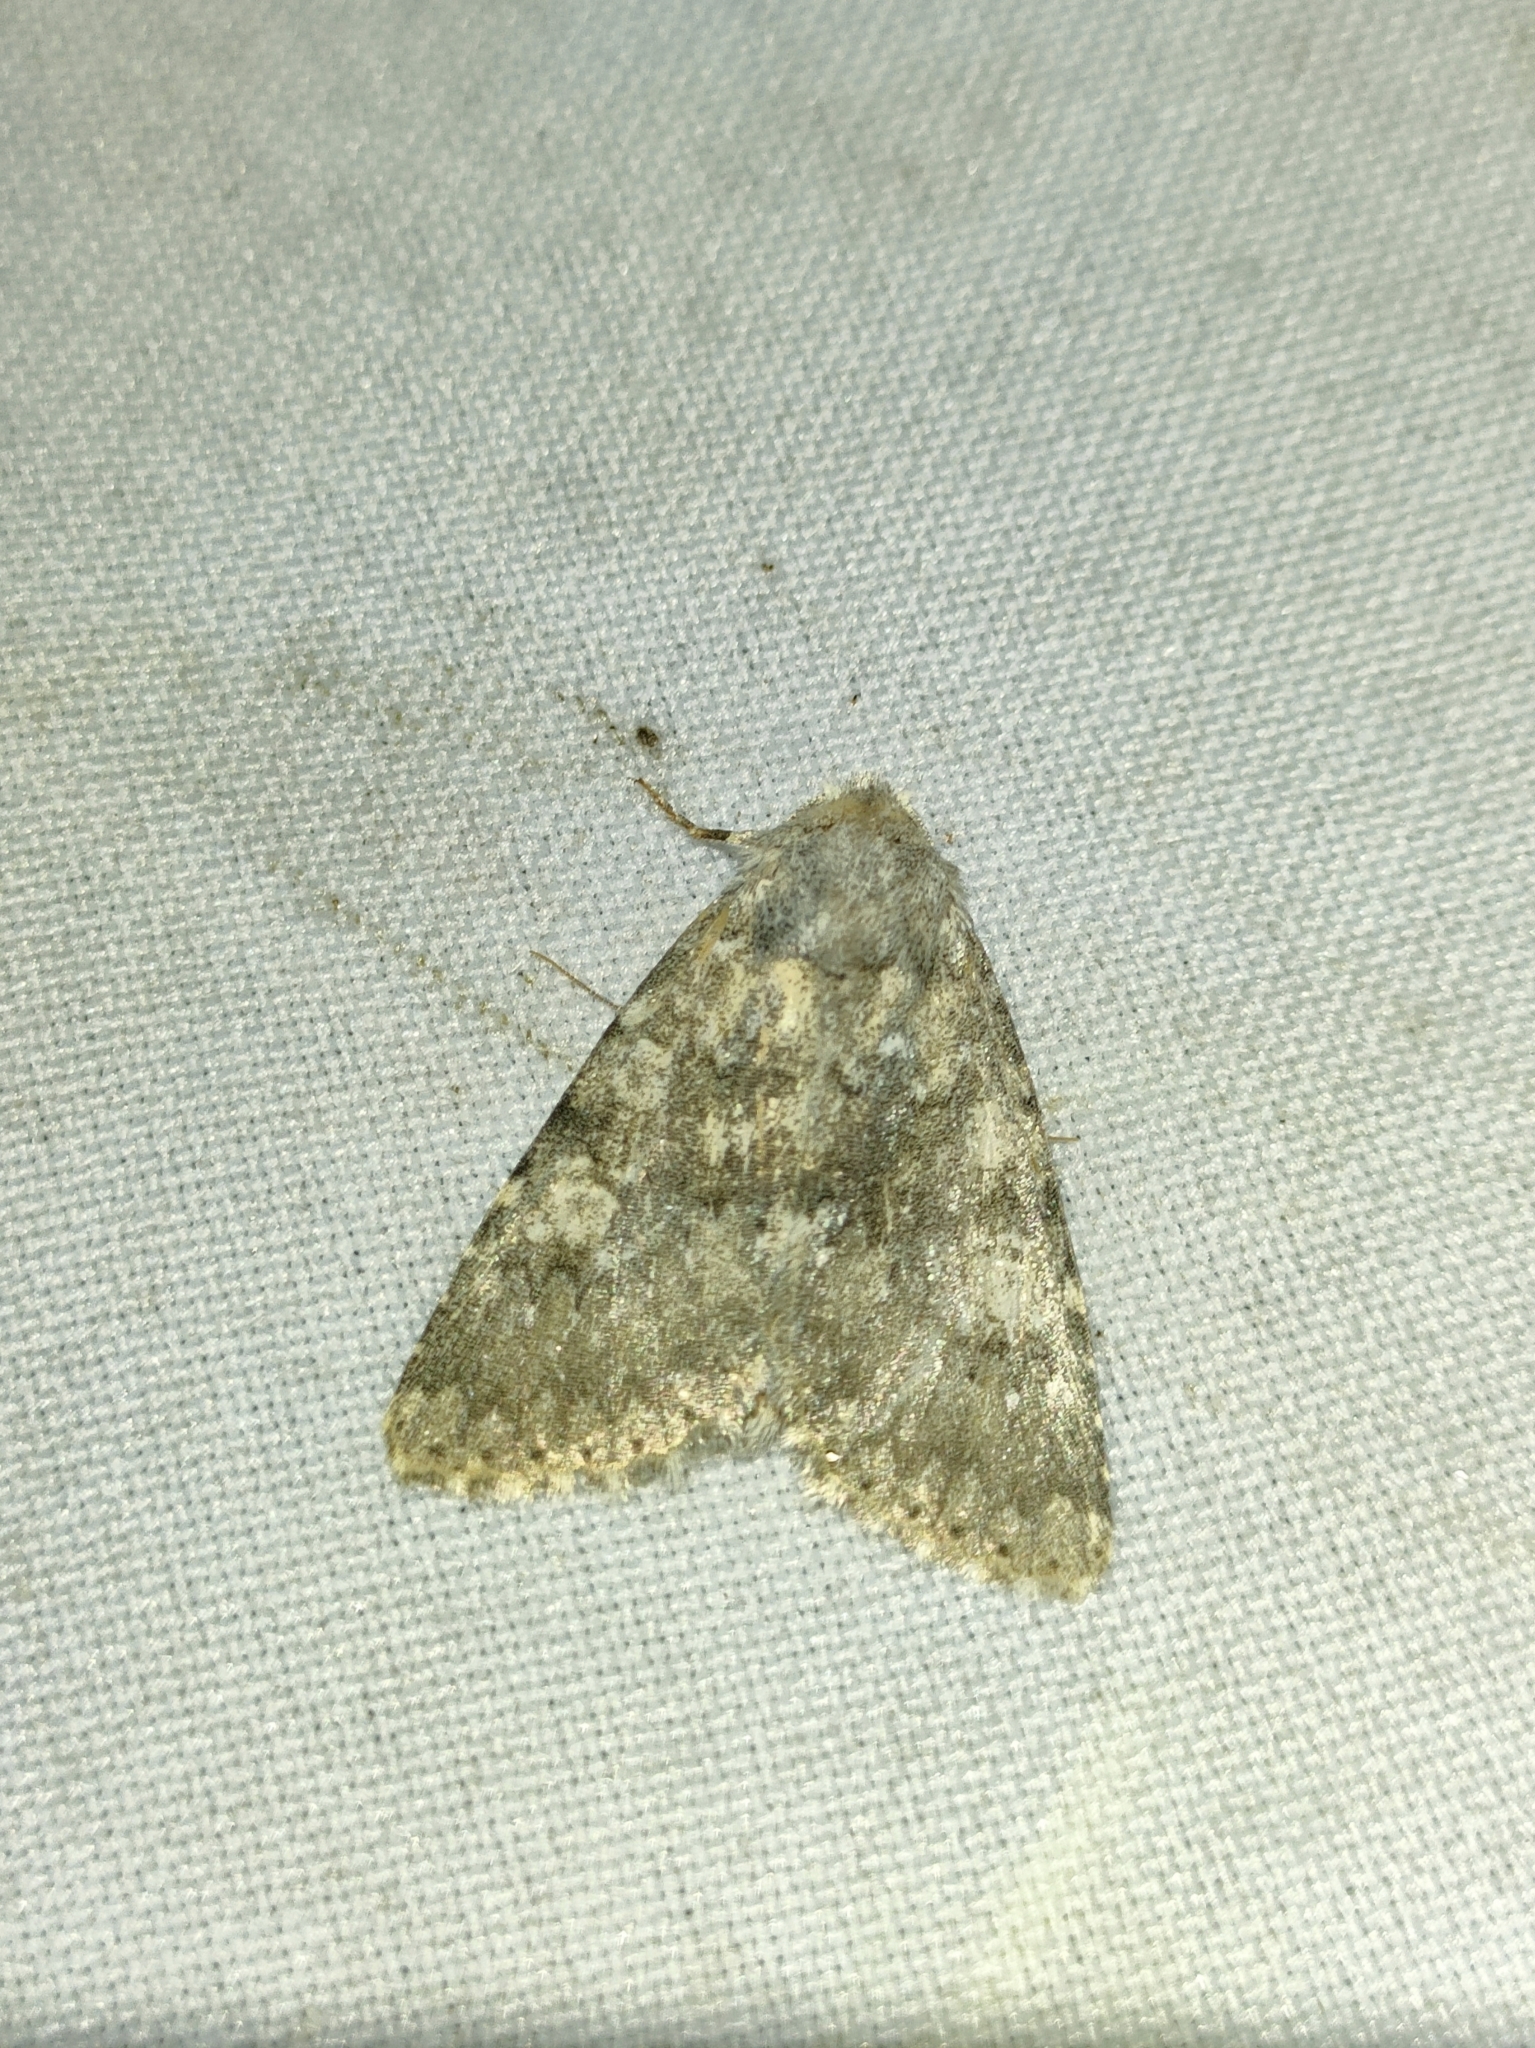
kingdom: Animalia
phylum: Arthropoda
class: Insecta
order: Lepidoptera
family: Noctuidae
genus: Polymixis
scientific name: Polymixis dubia
